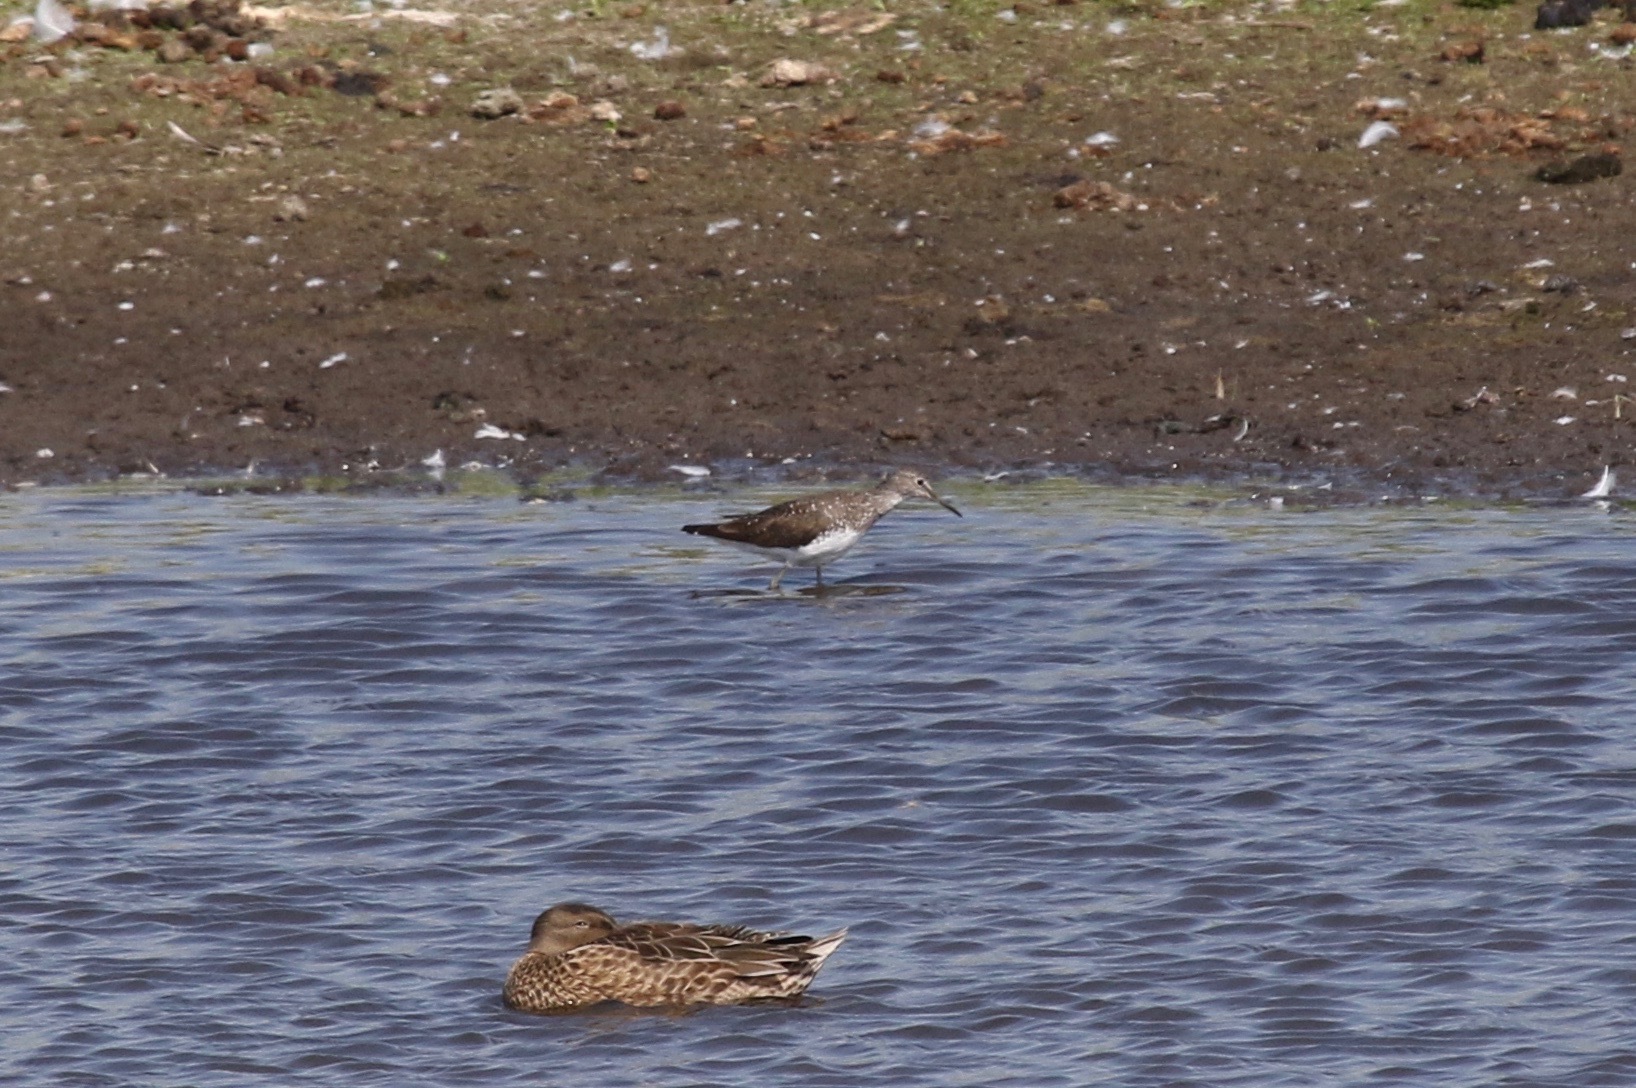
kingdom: Animalia
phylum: Chordata
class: Aves
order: Charadriiformes
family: Scolopacidae
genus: Tringa
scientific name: Tringa ochropus
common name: Green sandpiper
